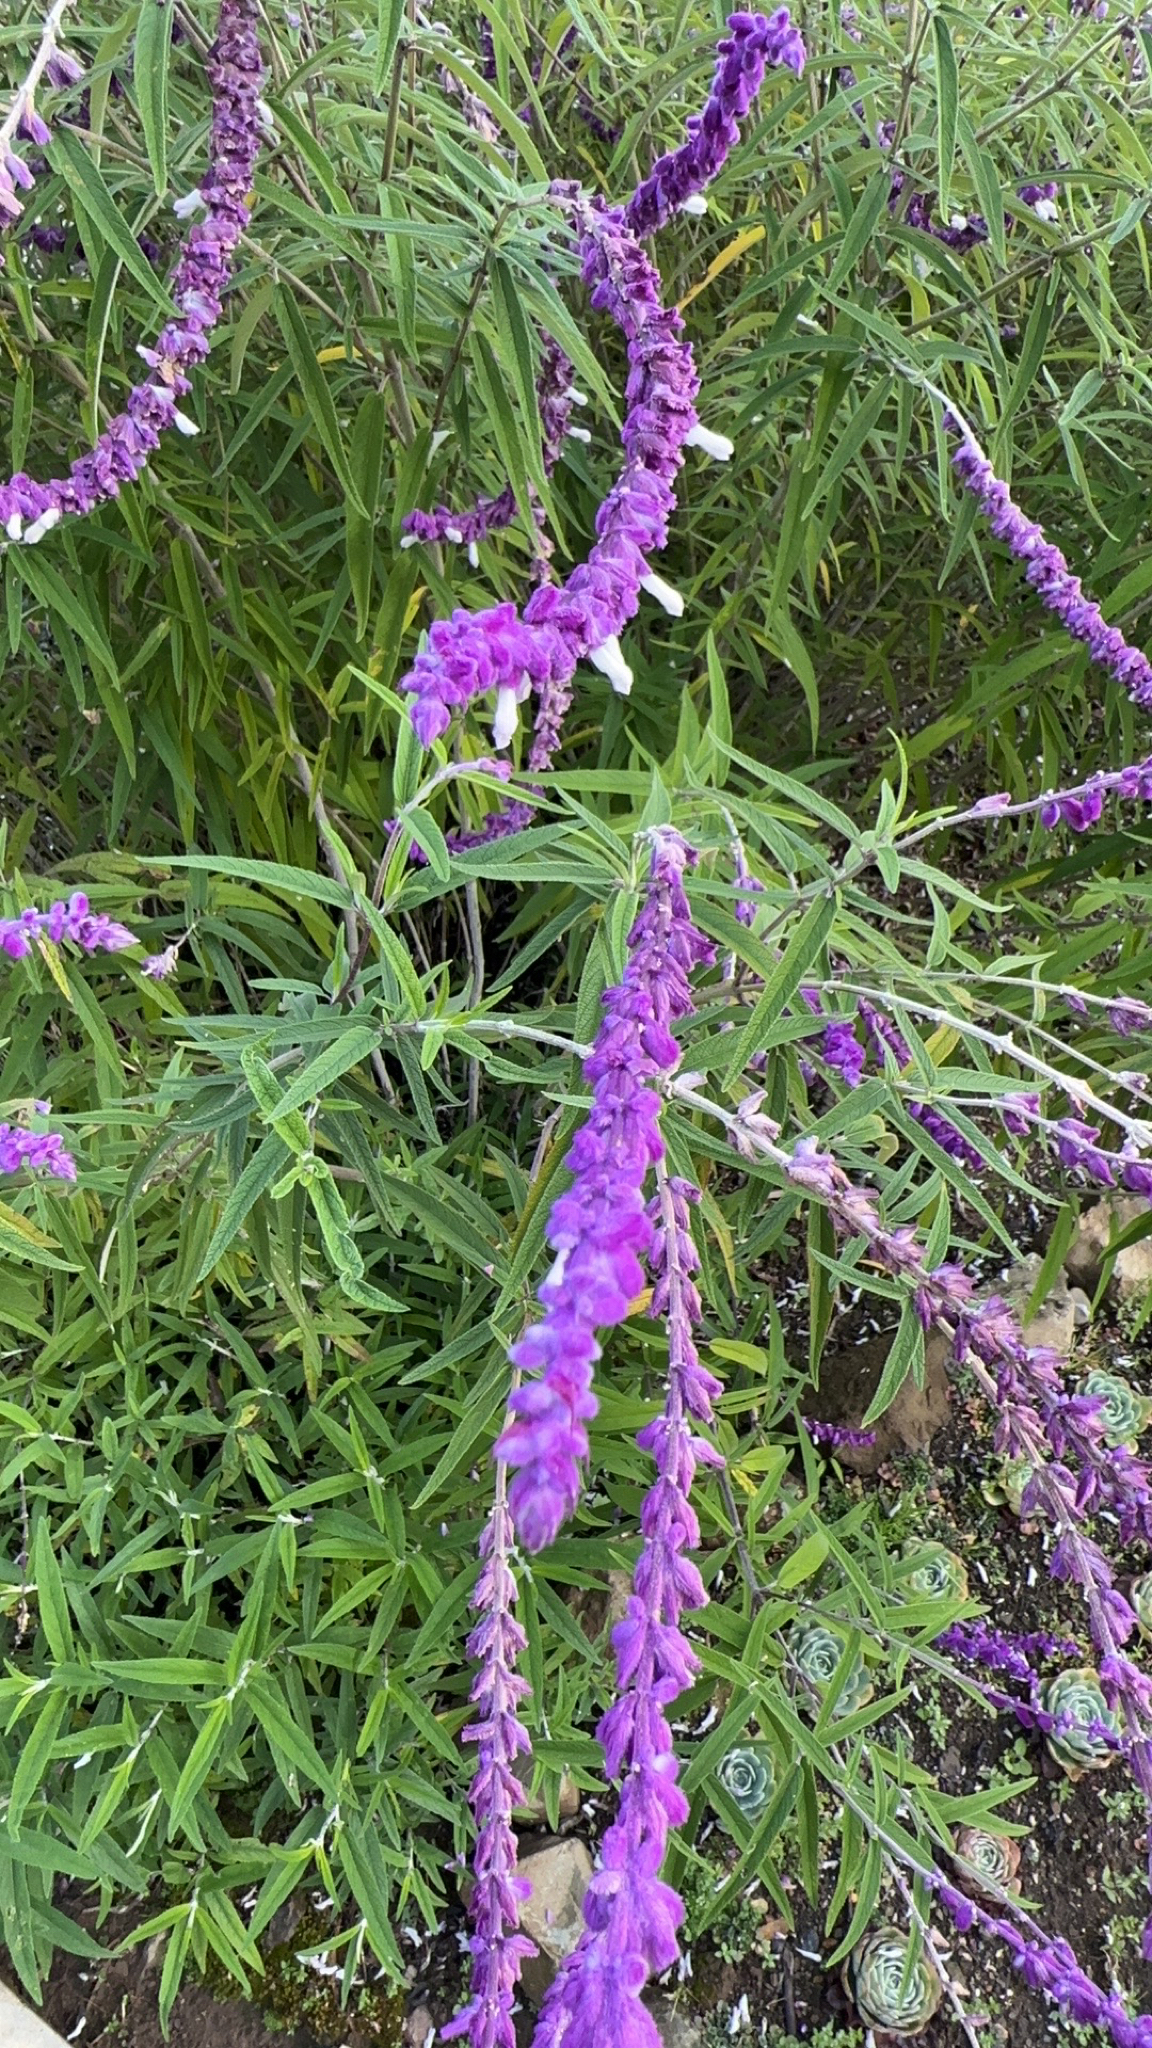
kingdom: Plantae
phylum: Tracheophyta
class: Magnoliopsida
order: Lamiales
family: Lamiaceae
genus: Salvia
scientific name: Salvia leucantha
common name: Mexican bush sage
